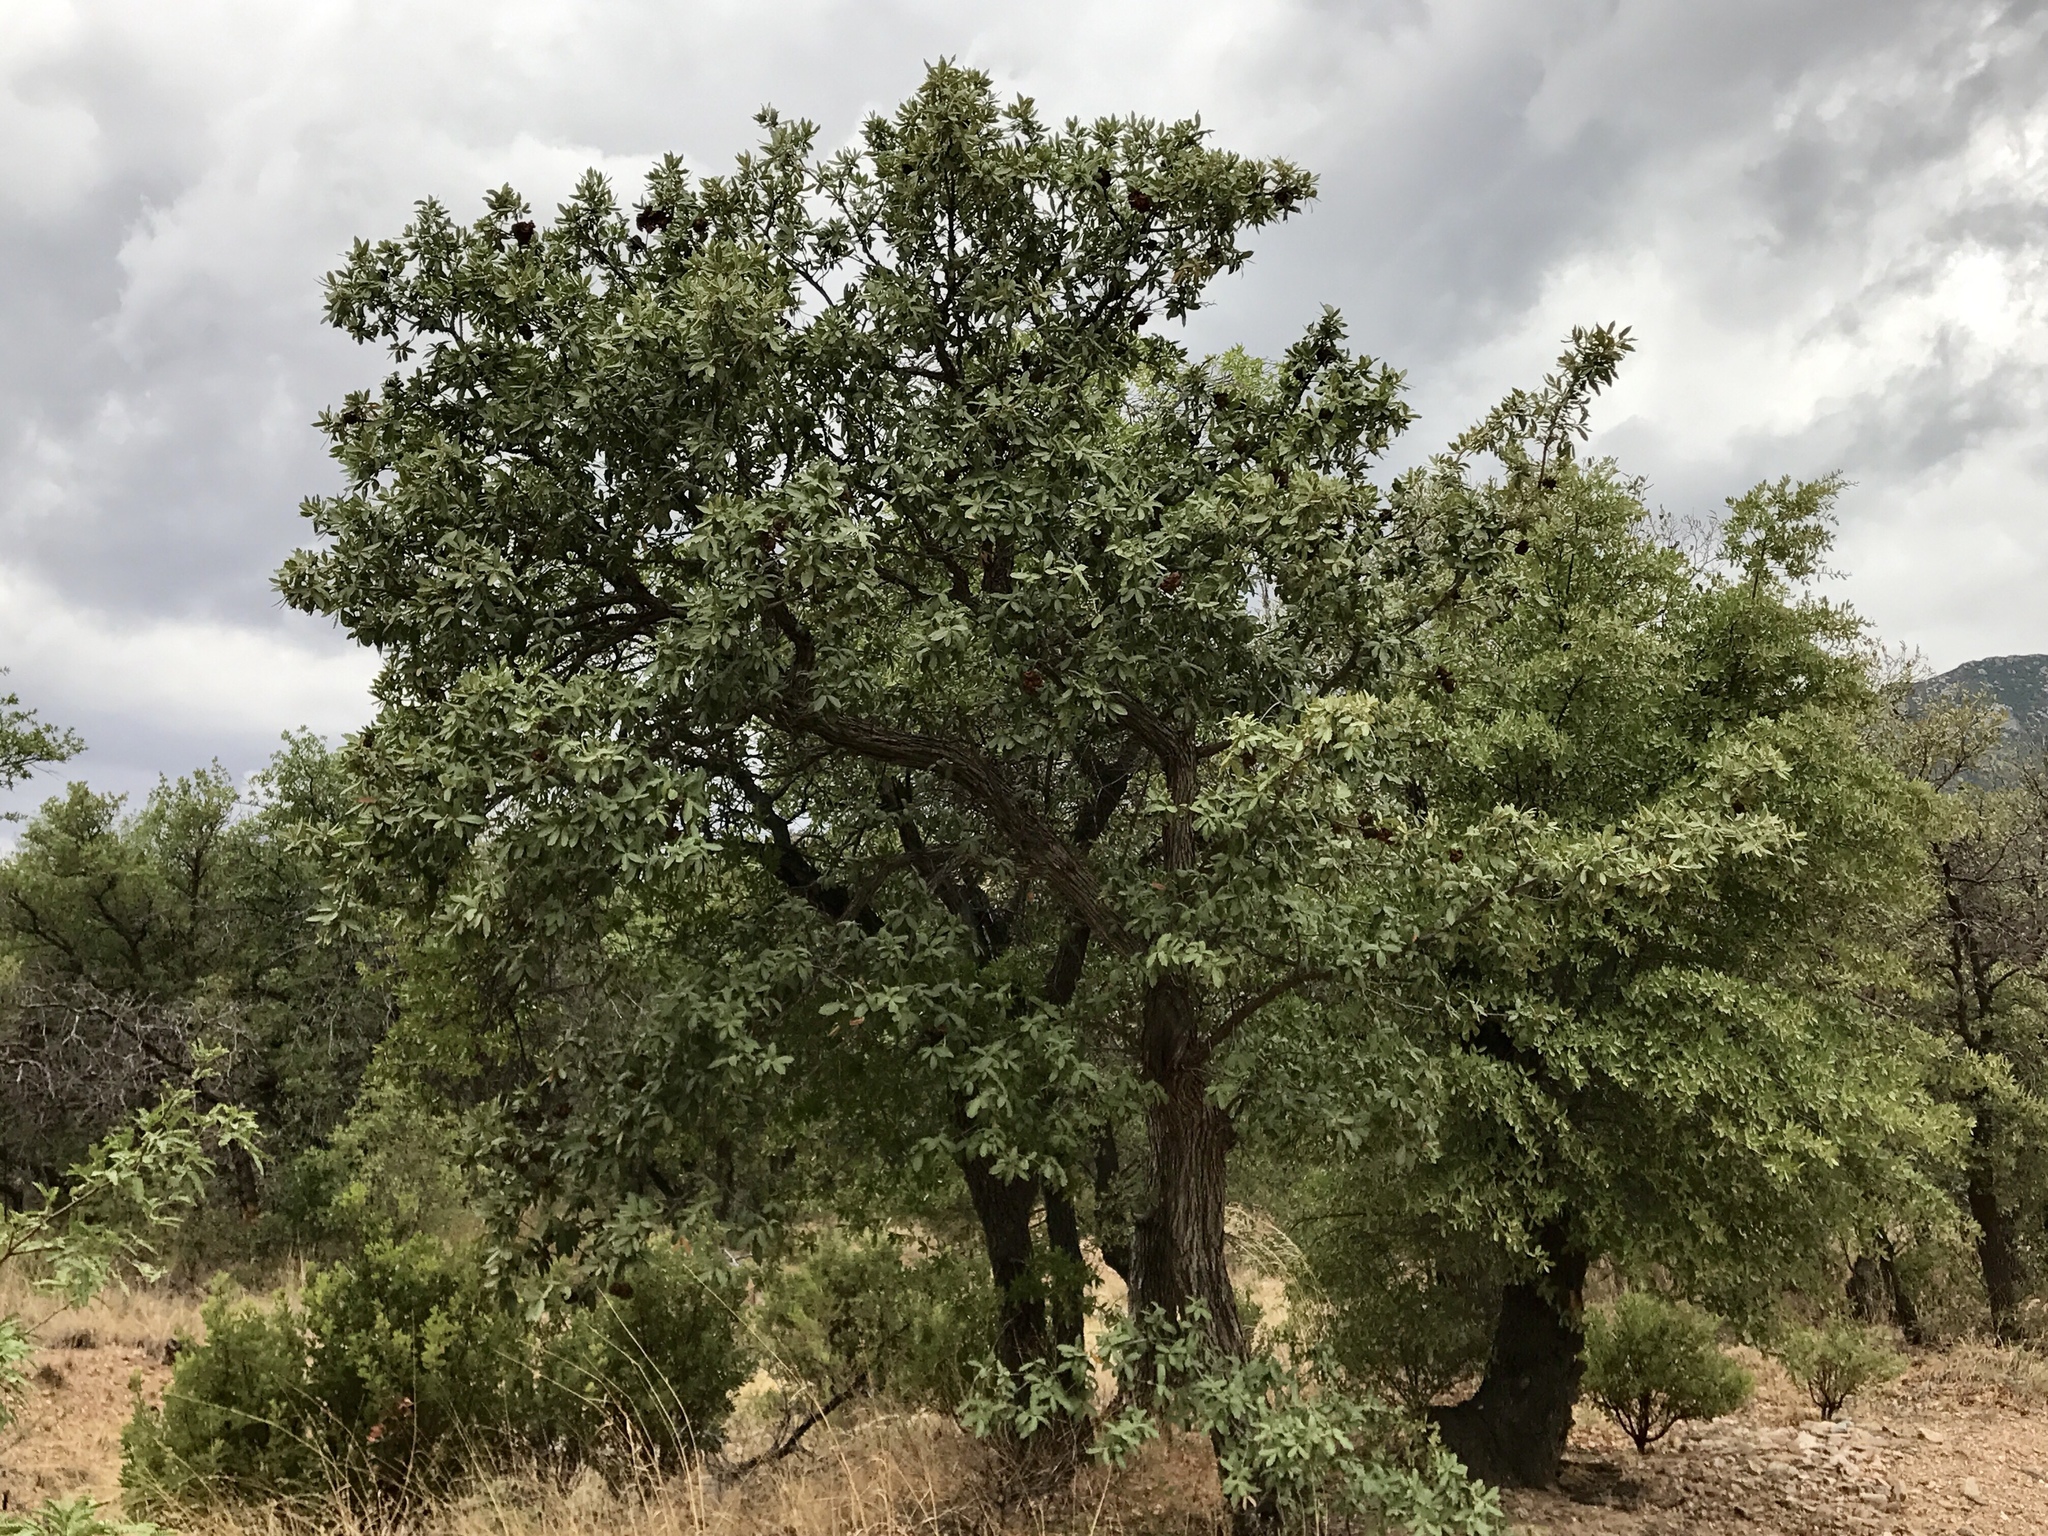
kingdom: Plantae
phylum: Tracheophyta
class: Magnoliopsida
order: Fagales
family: Fagaceae
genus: Quercus
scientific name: Quercus arizonica
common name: Arizona white oak
